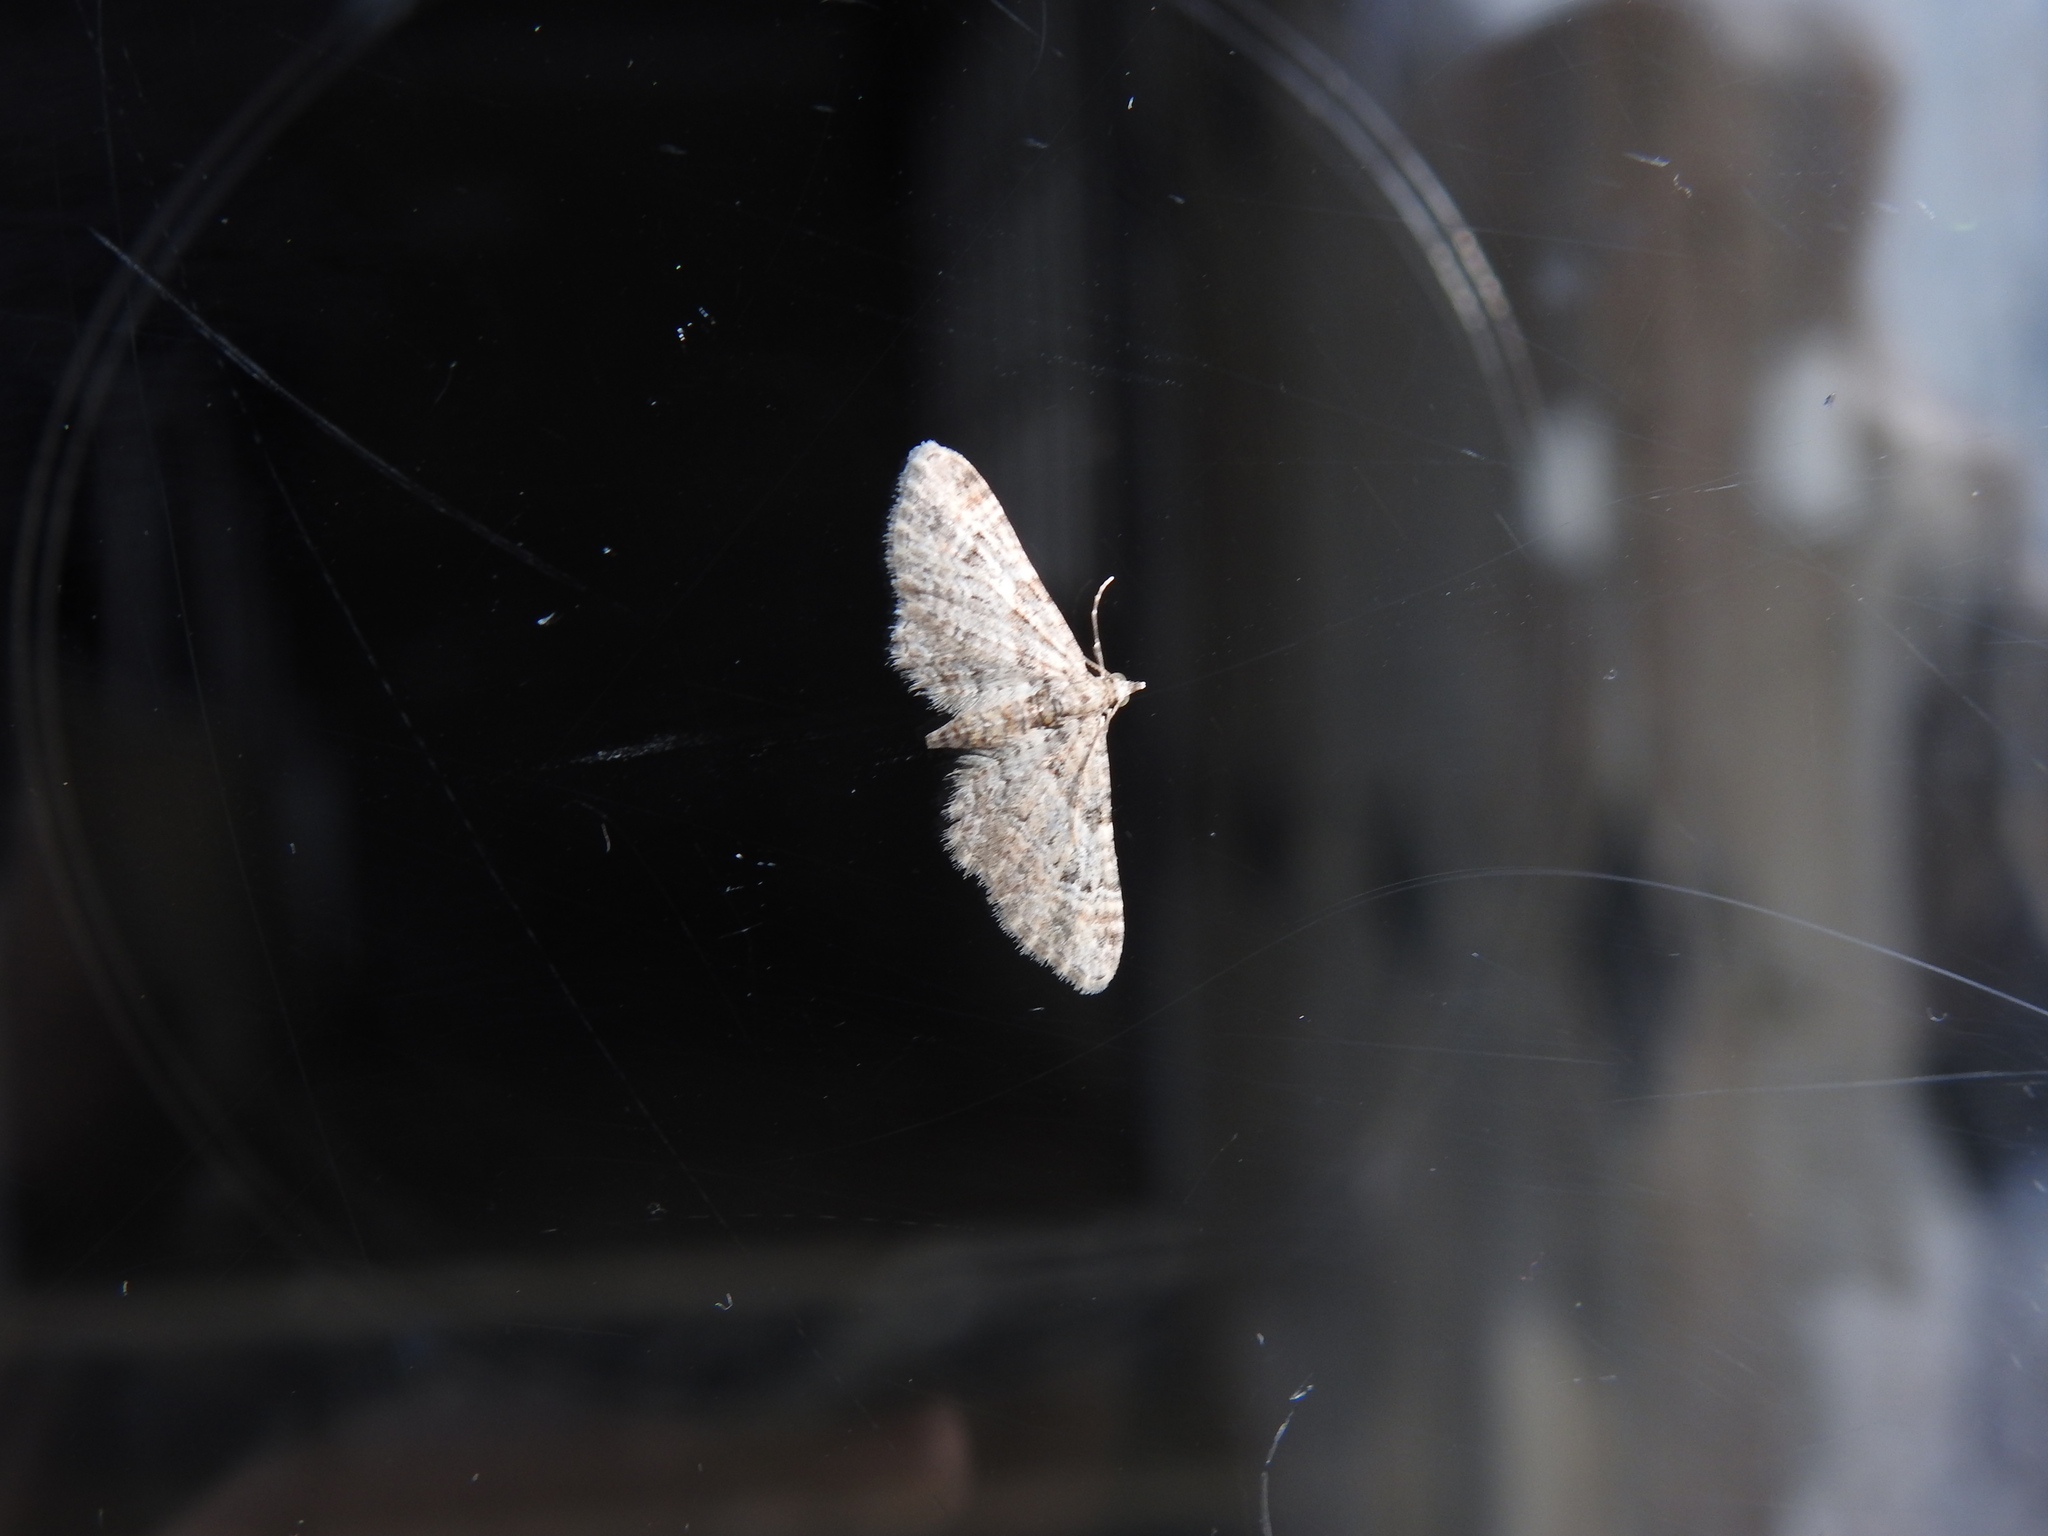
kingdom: Animalia
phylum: Arthropoda
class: Insecta
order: Lepidoptera
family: Geometridae
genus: Gymnoscelis
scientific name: Gymnoscelis rufifasciata
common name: Double-striped pug
